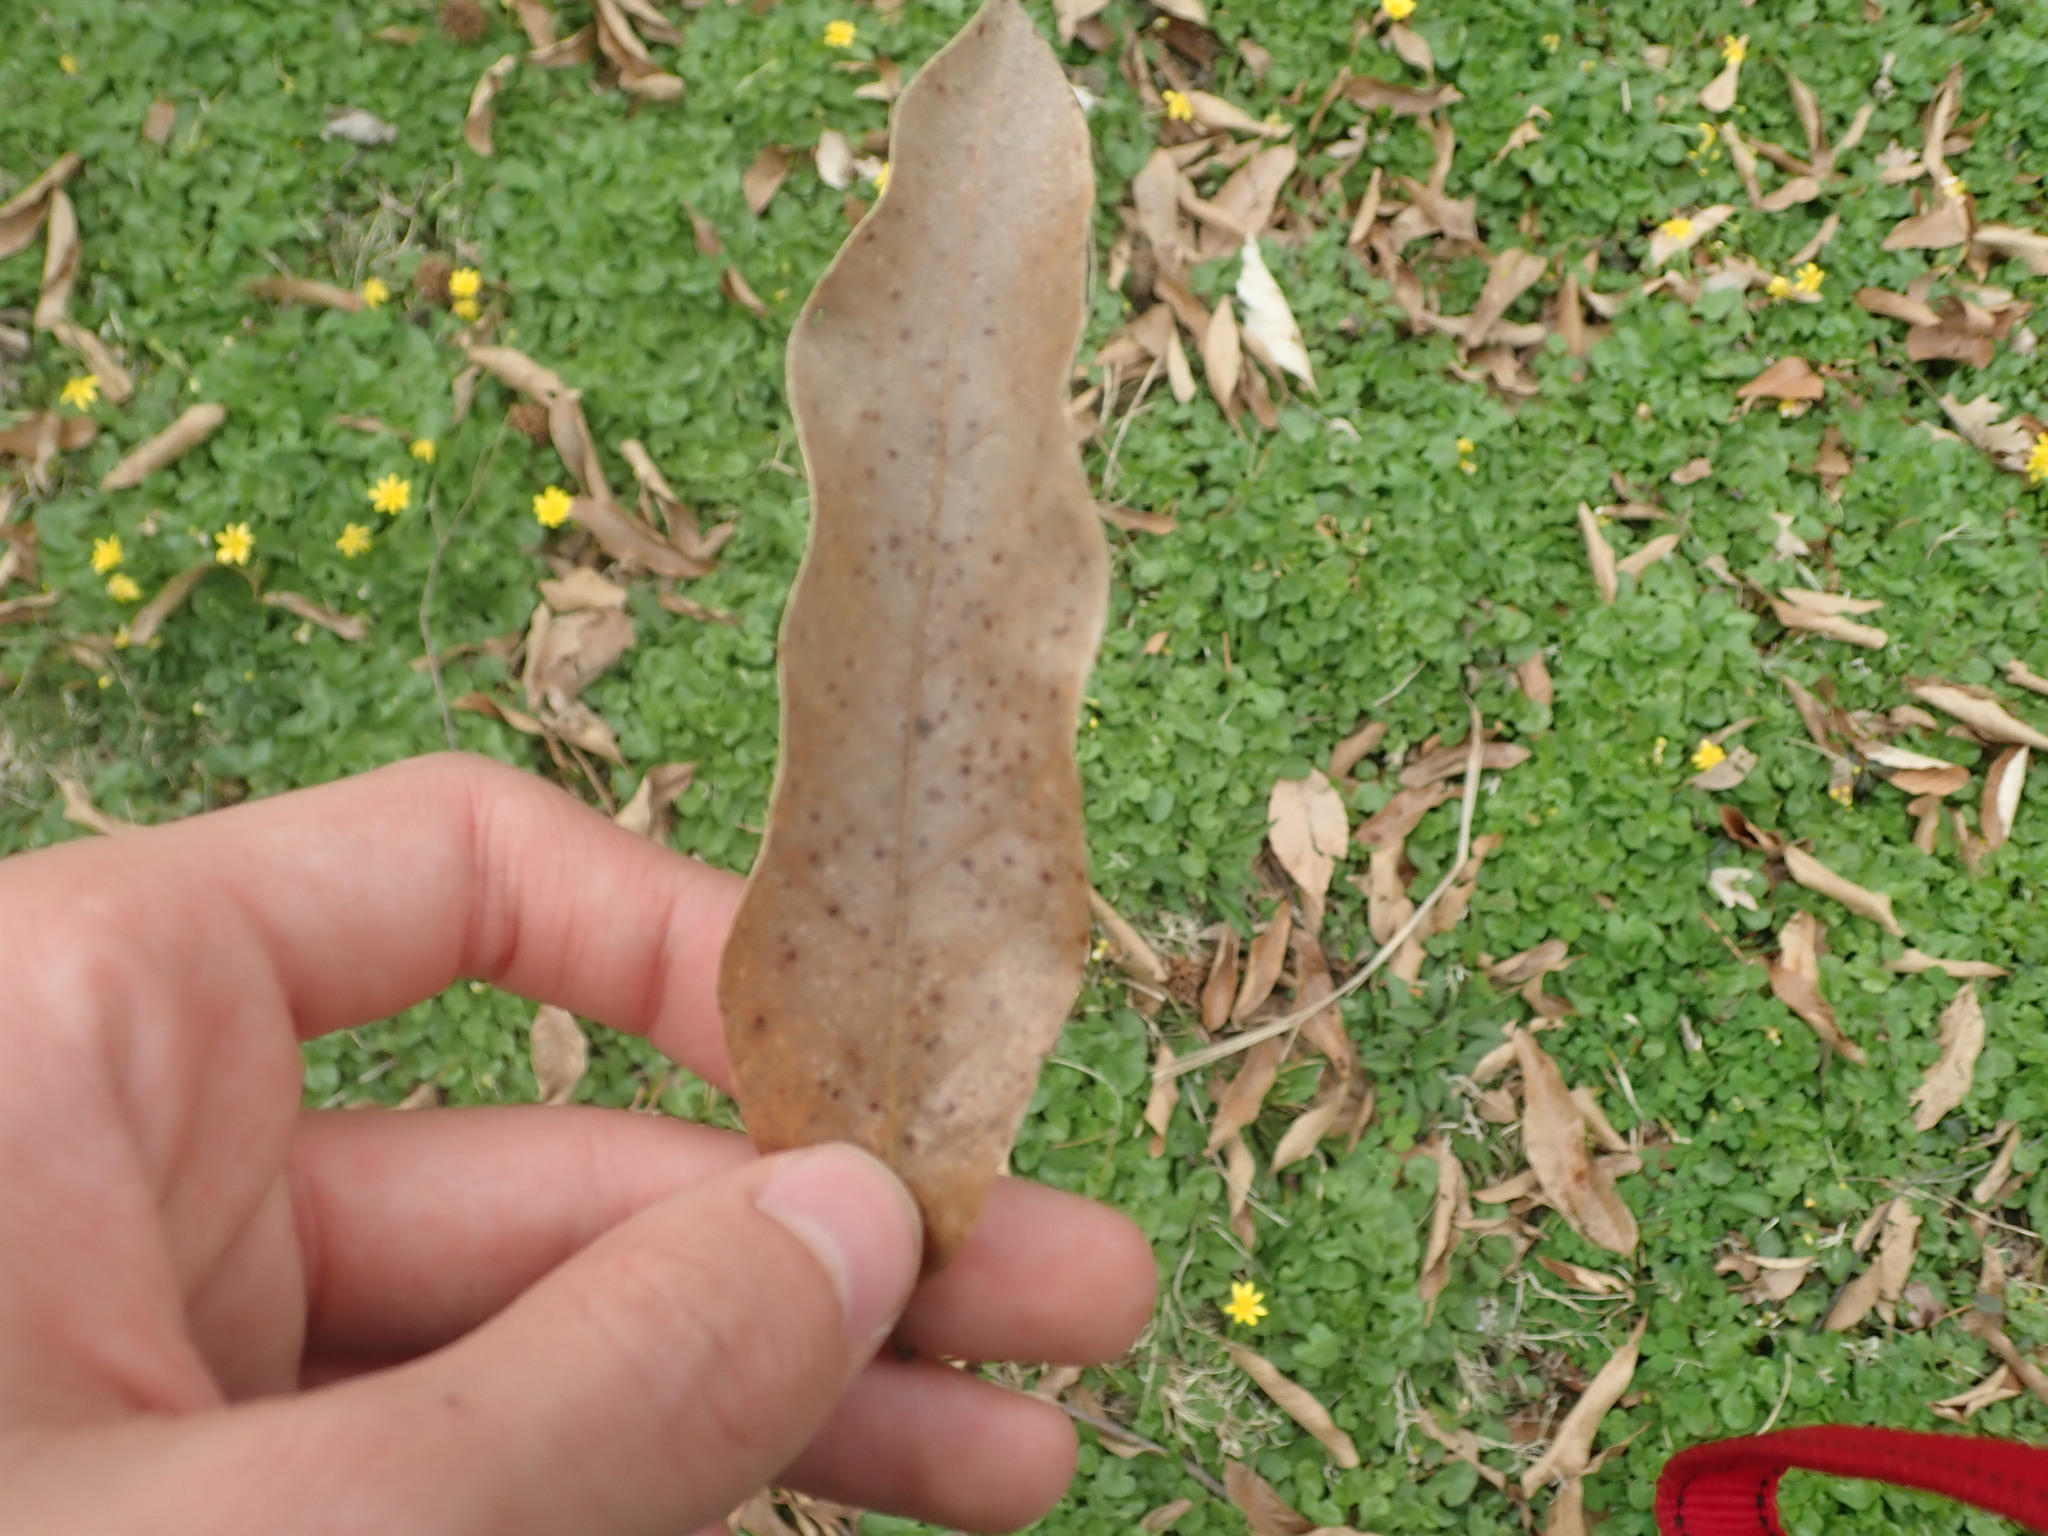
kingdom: Plantae
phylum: Tracheophyta
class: Magnoliopsida
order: Fagales
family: Fagaceae
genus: Quercus
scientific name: Quercus imbricaria
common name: Shingle oak
